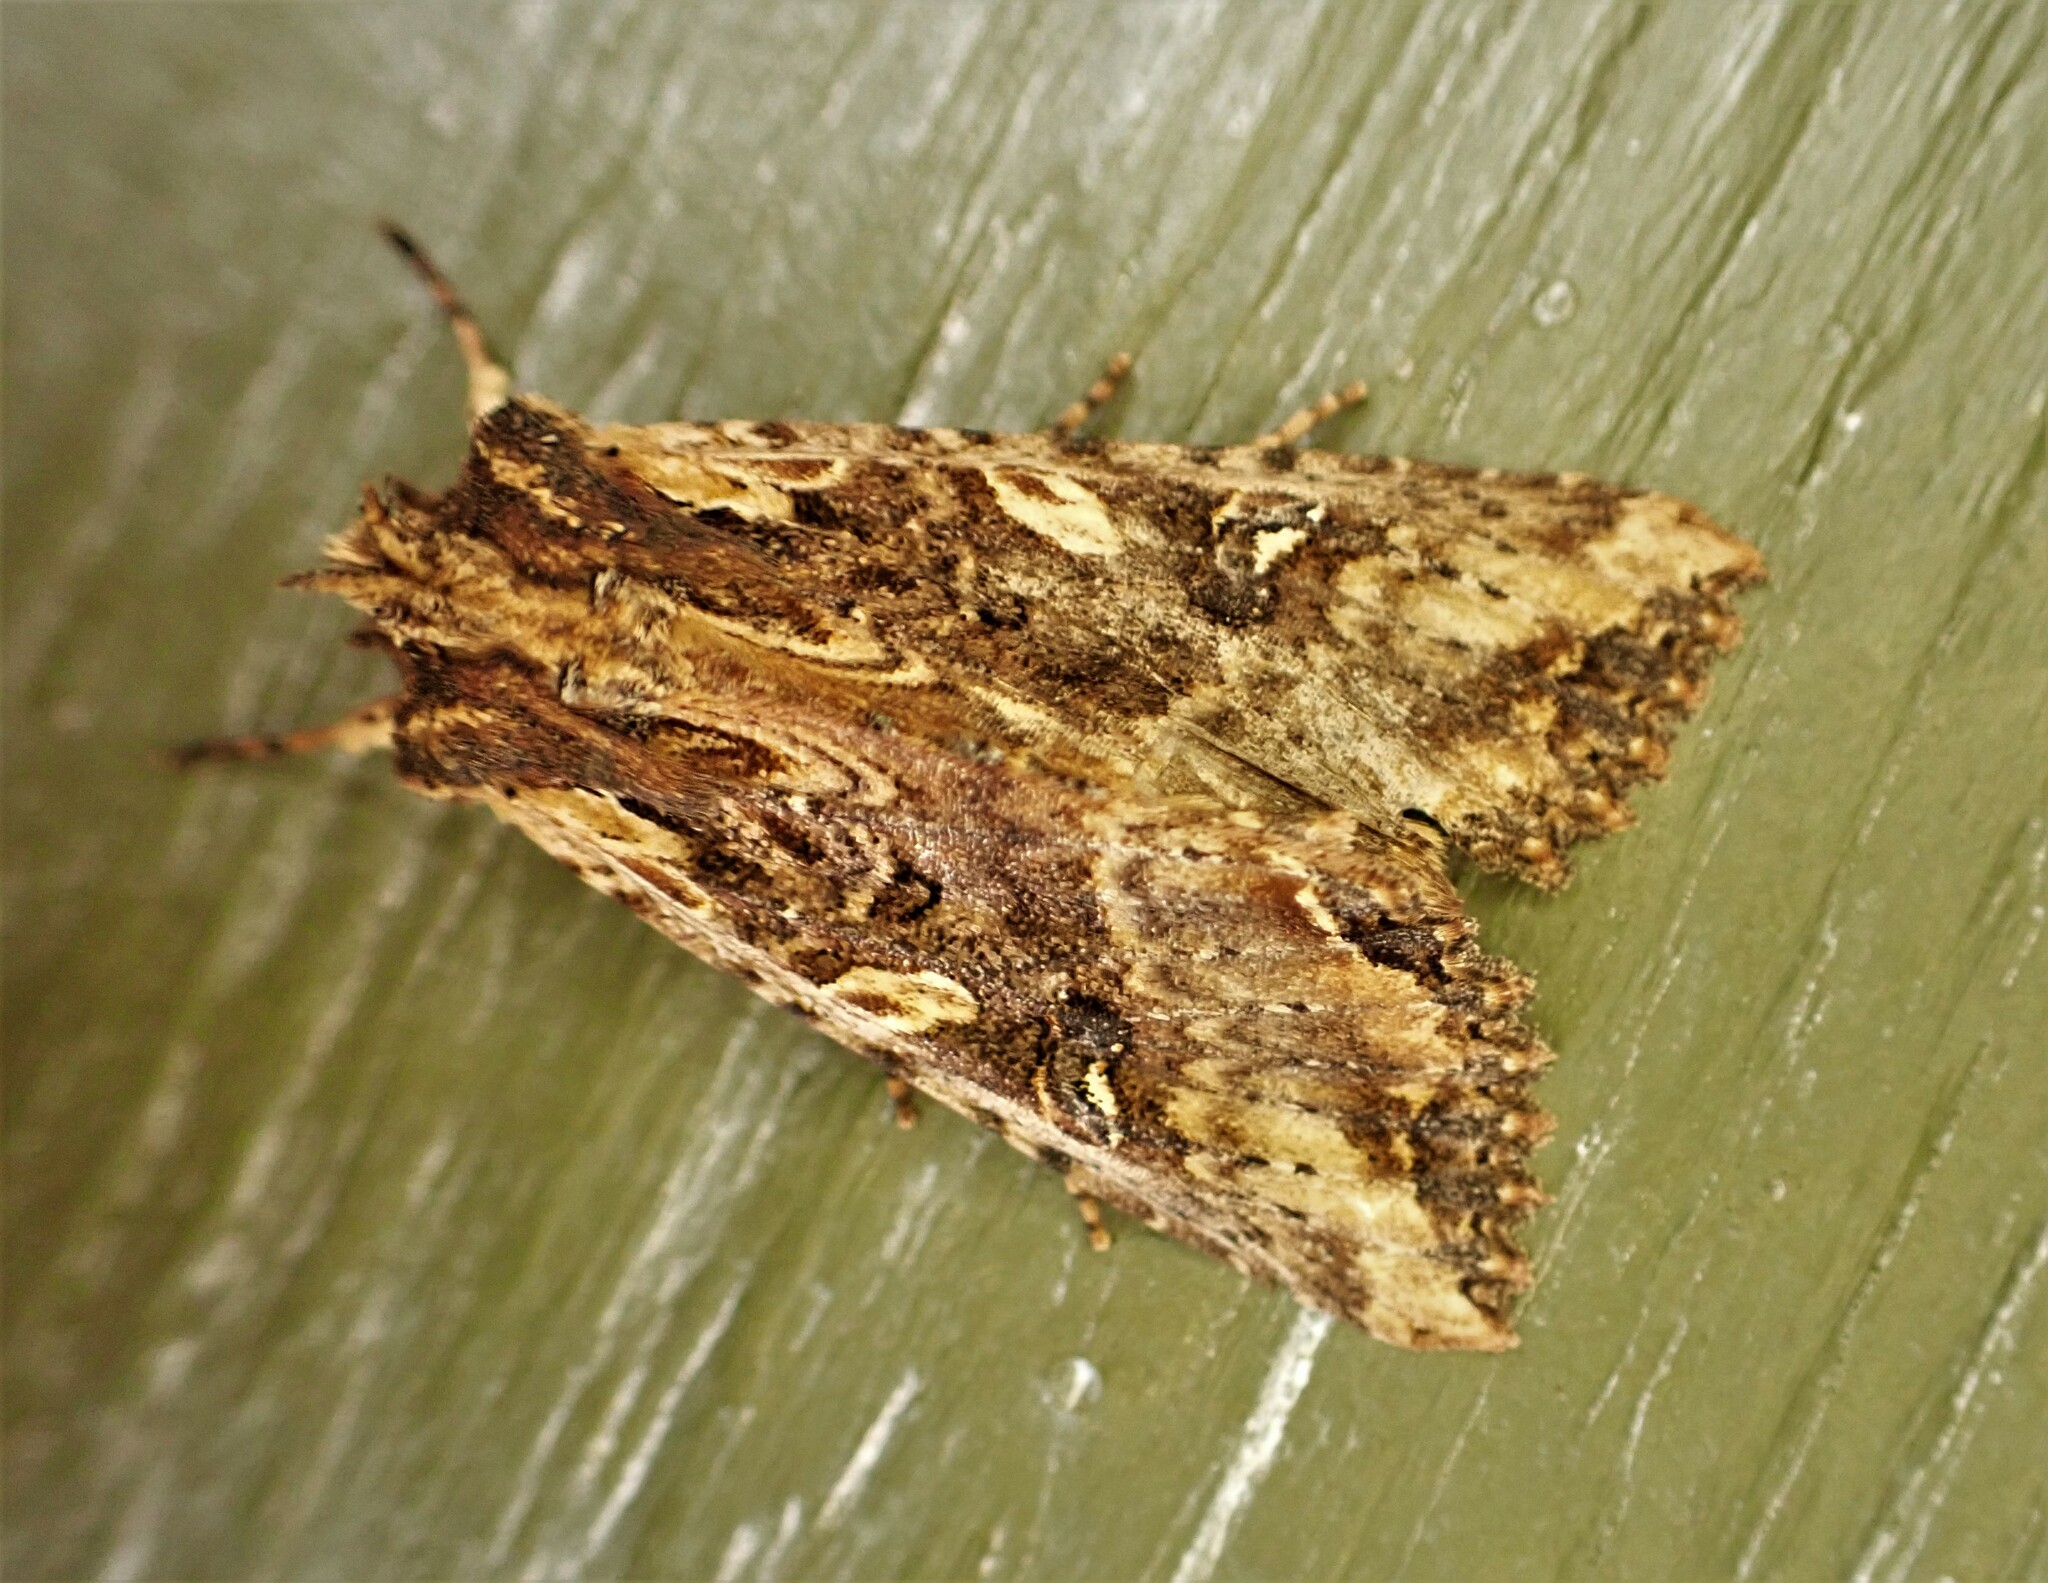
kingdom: Animalia
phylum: Arthropoda
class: Insecta
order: Lepidoptera
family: Noctuidae
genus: Meterana
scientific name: Meterana stipata
